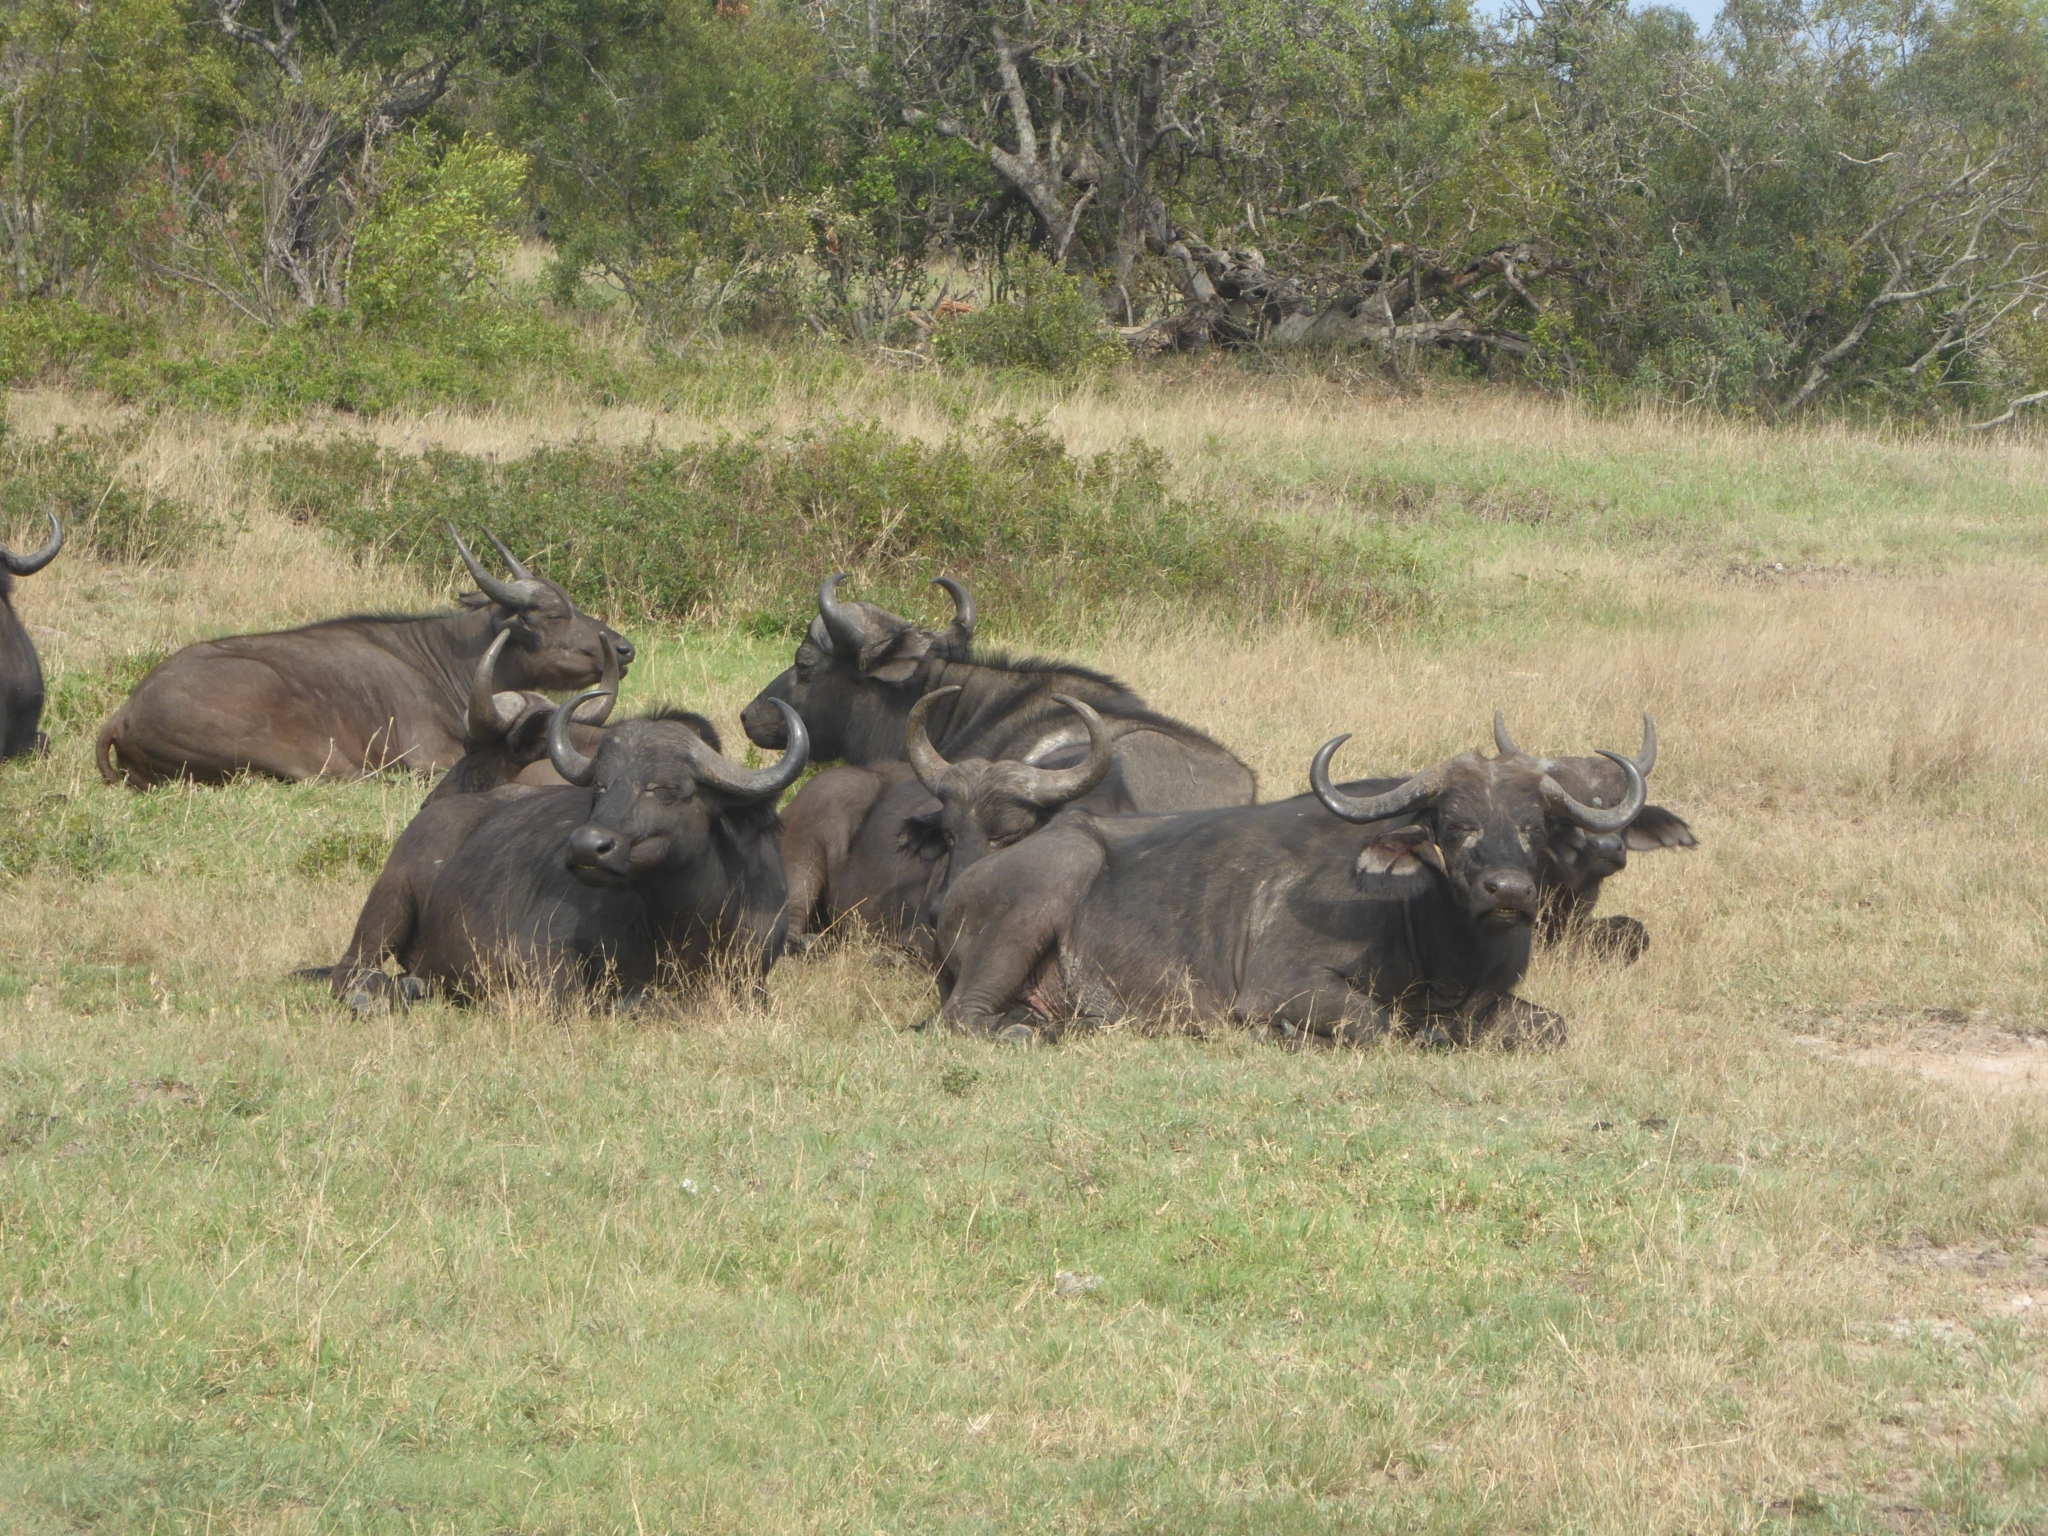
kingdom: Animalia
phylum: Chordata
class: Mammalia
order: Artiodactyla
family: Bovidae
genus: Syncerus
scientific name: Syncerus caffer
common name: African buffalo
